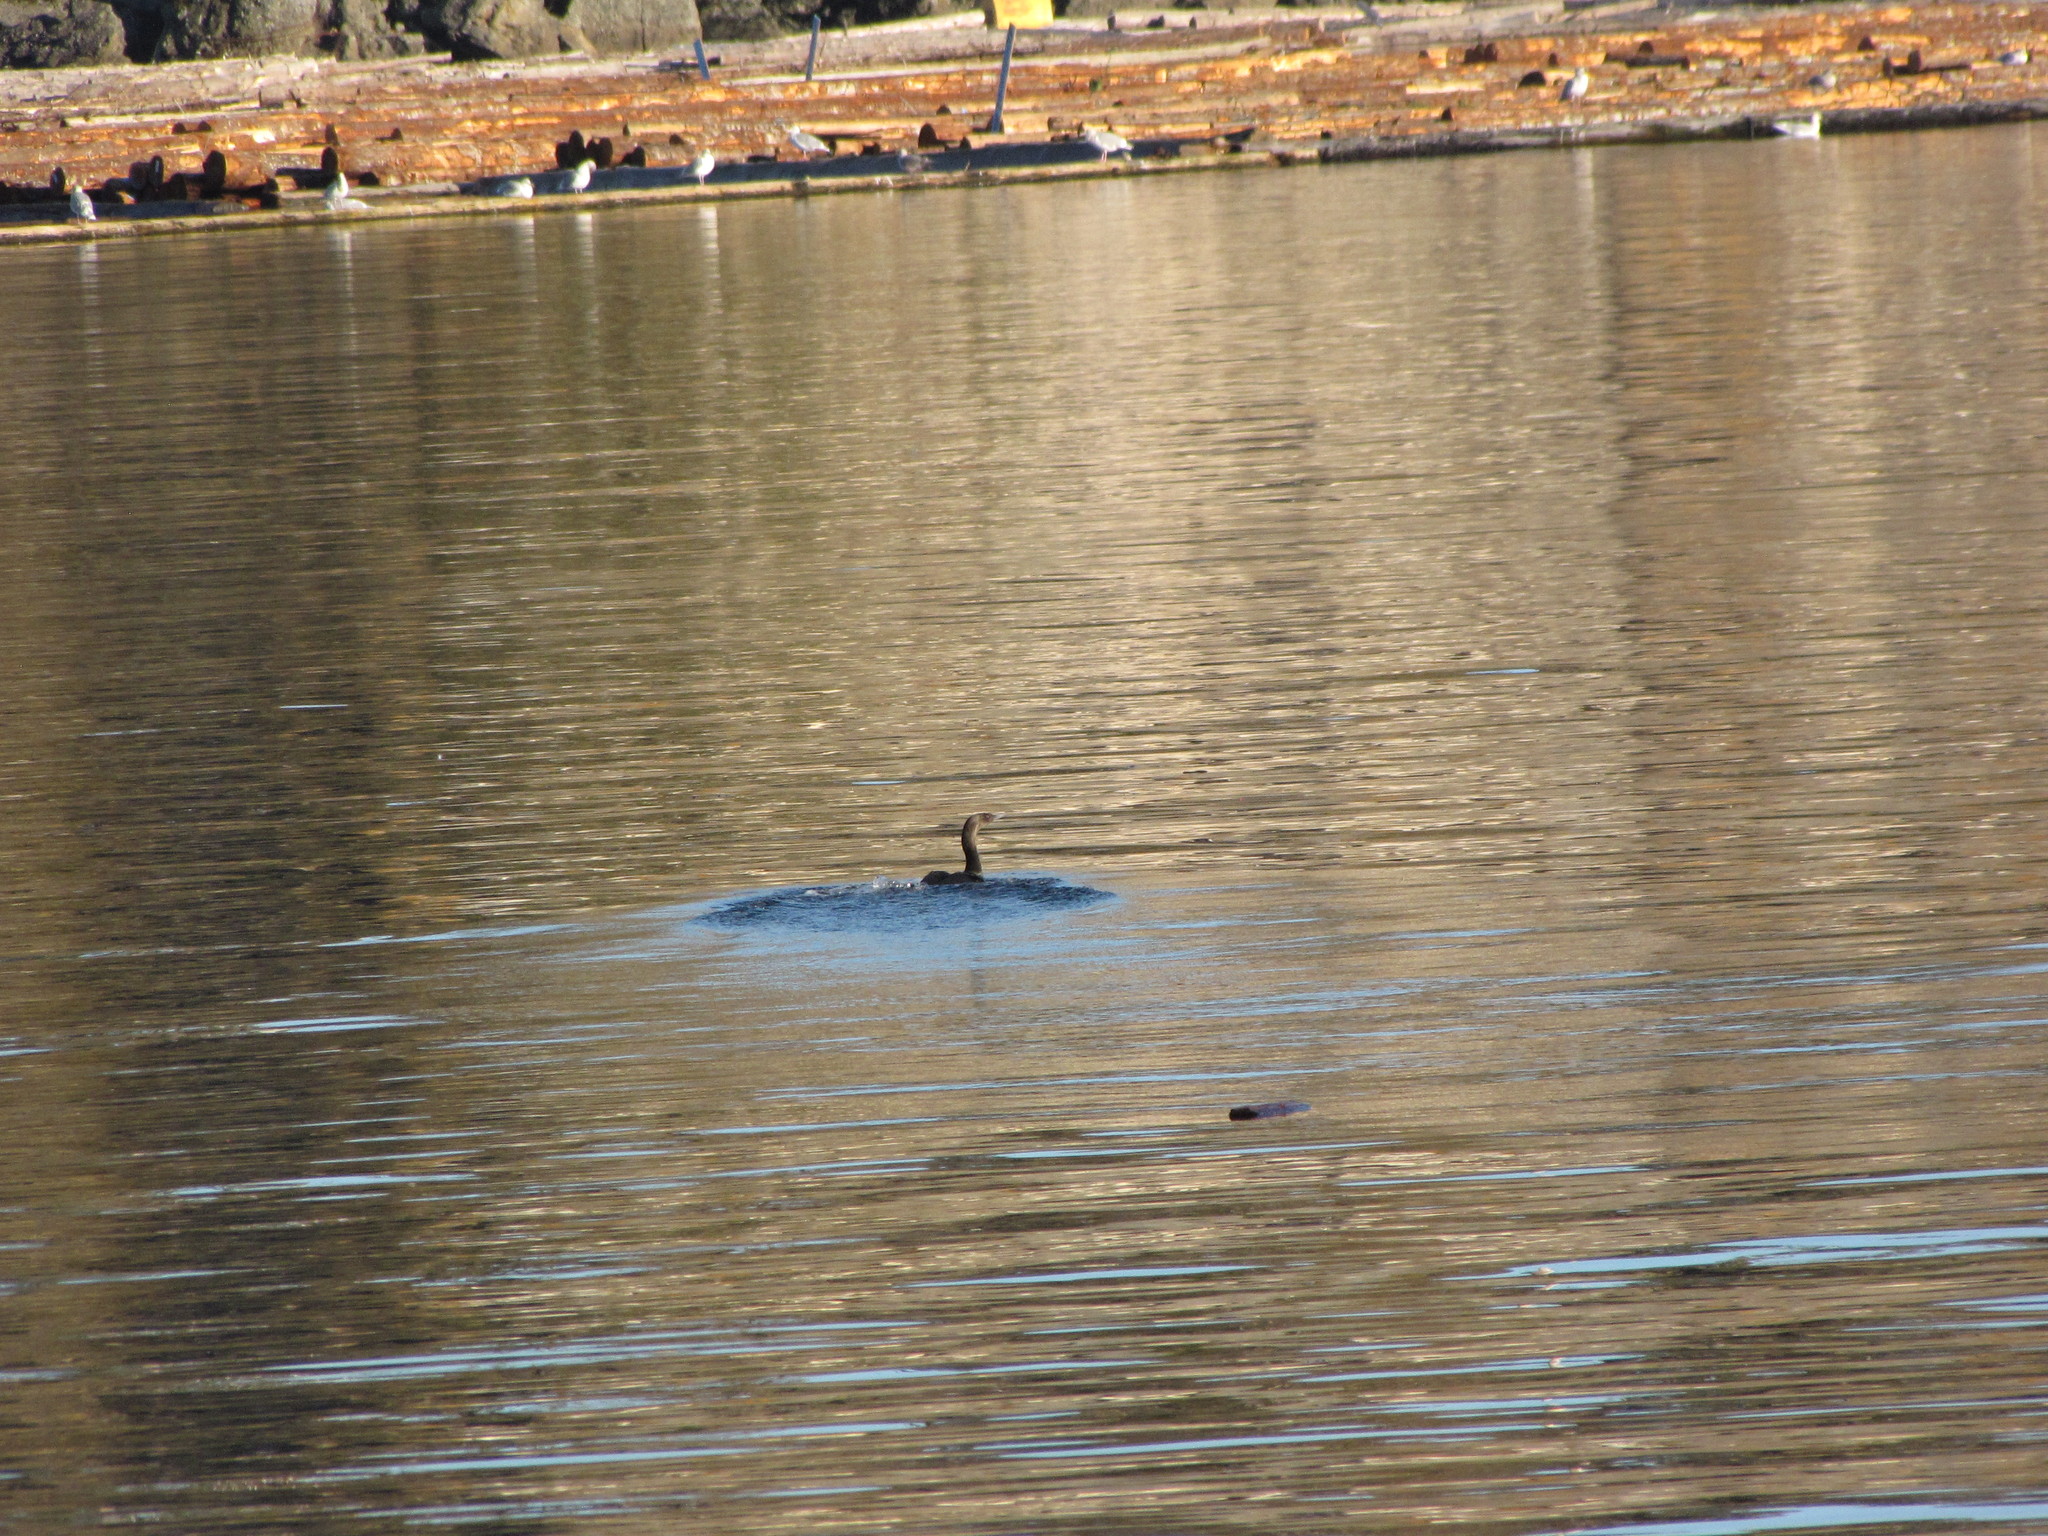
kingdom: Animalia
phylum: Chordata
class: Aves
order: Suliformes
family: Phalacrocoracidae
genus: Phalacrocorax
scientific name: Phalacrocorax pelagicus
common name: Pelagic cormorant
